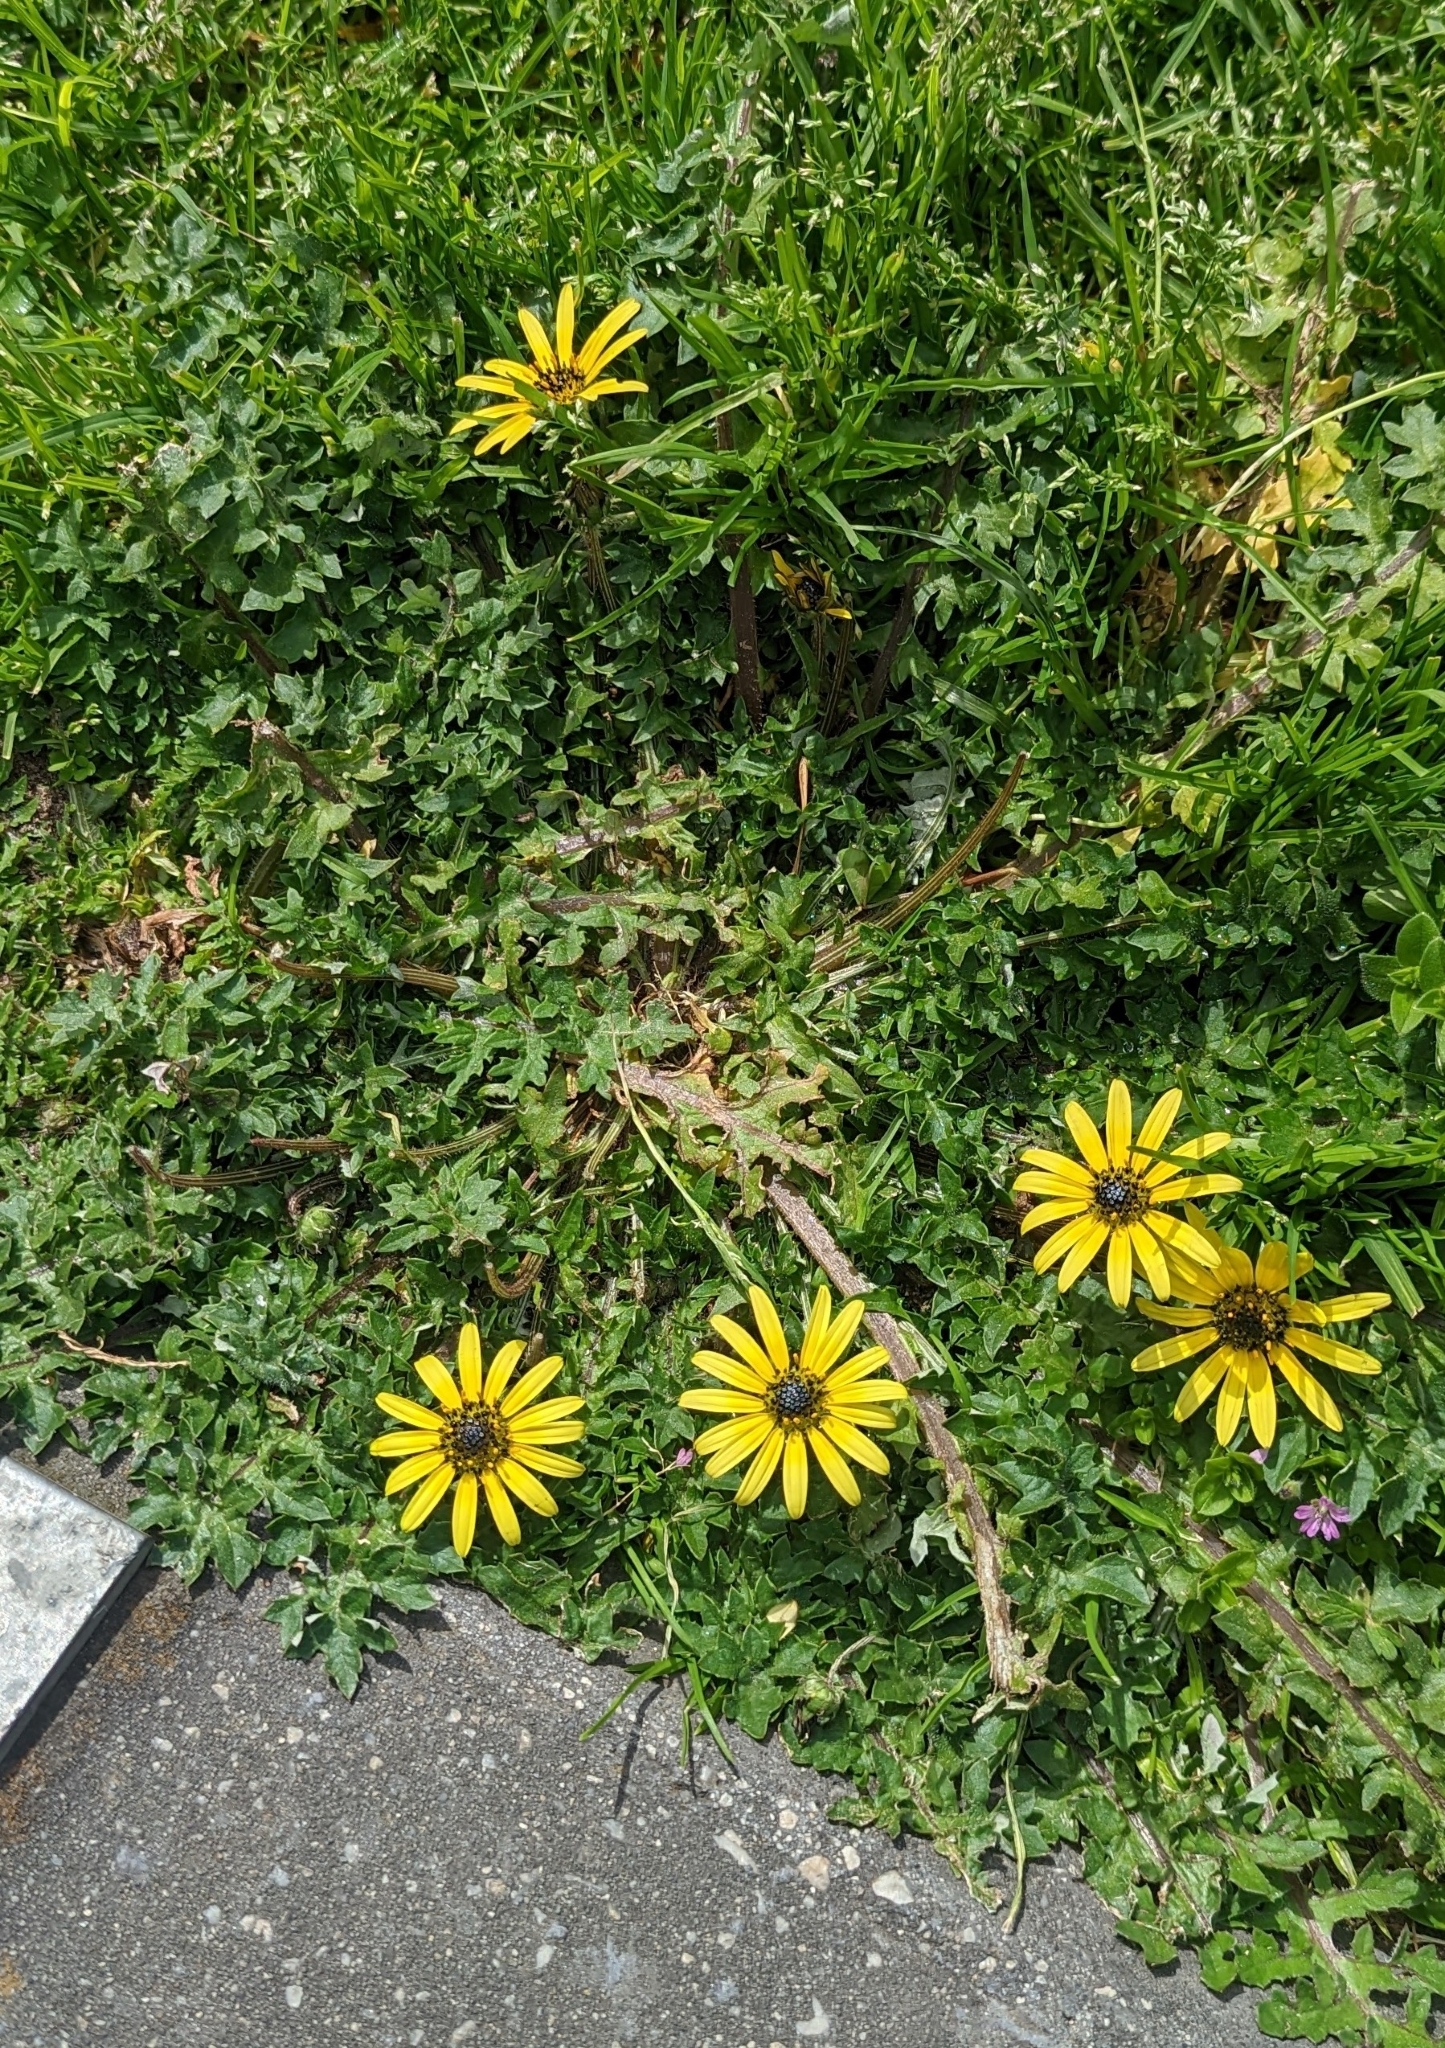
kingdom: Plantae
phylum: Tracheophyta
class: Magnoliopsida
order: Asterales
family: Asteraceae
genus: Arctotheca
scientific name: Arctotheca calendula
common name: Capeweed
